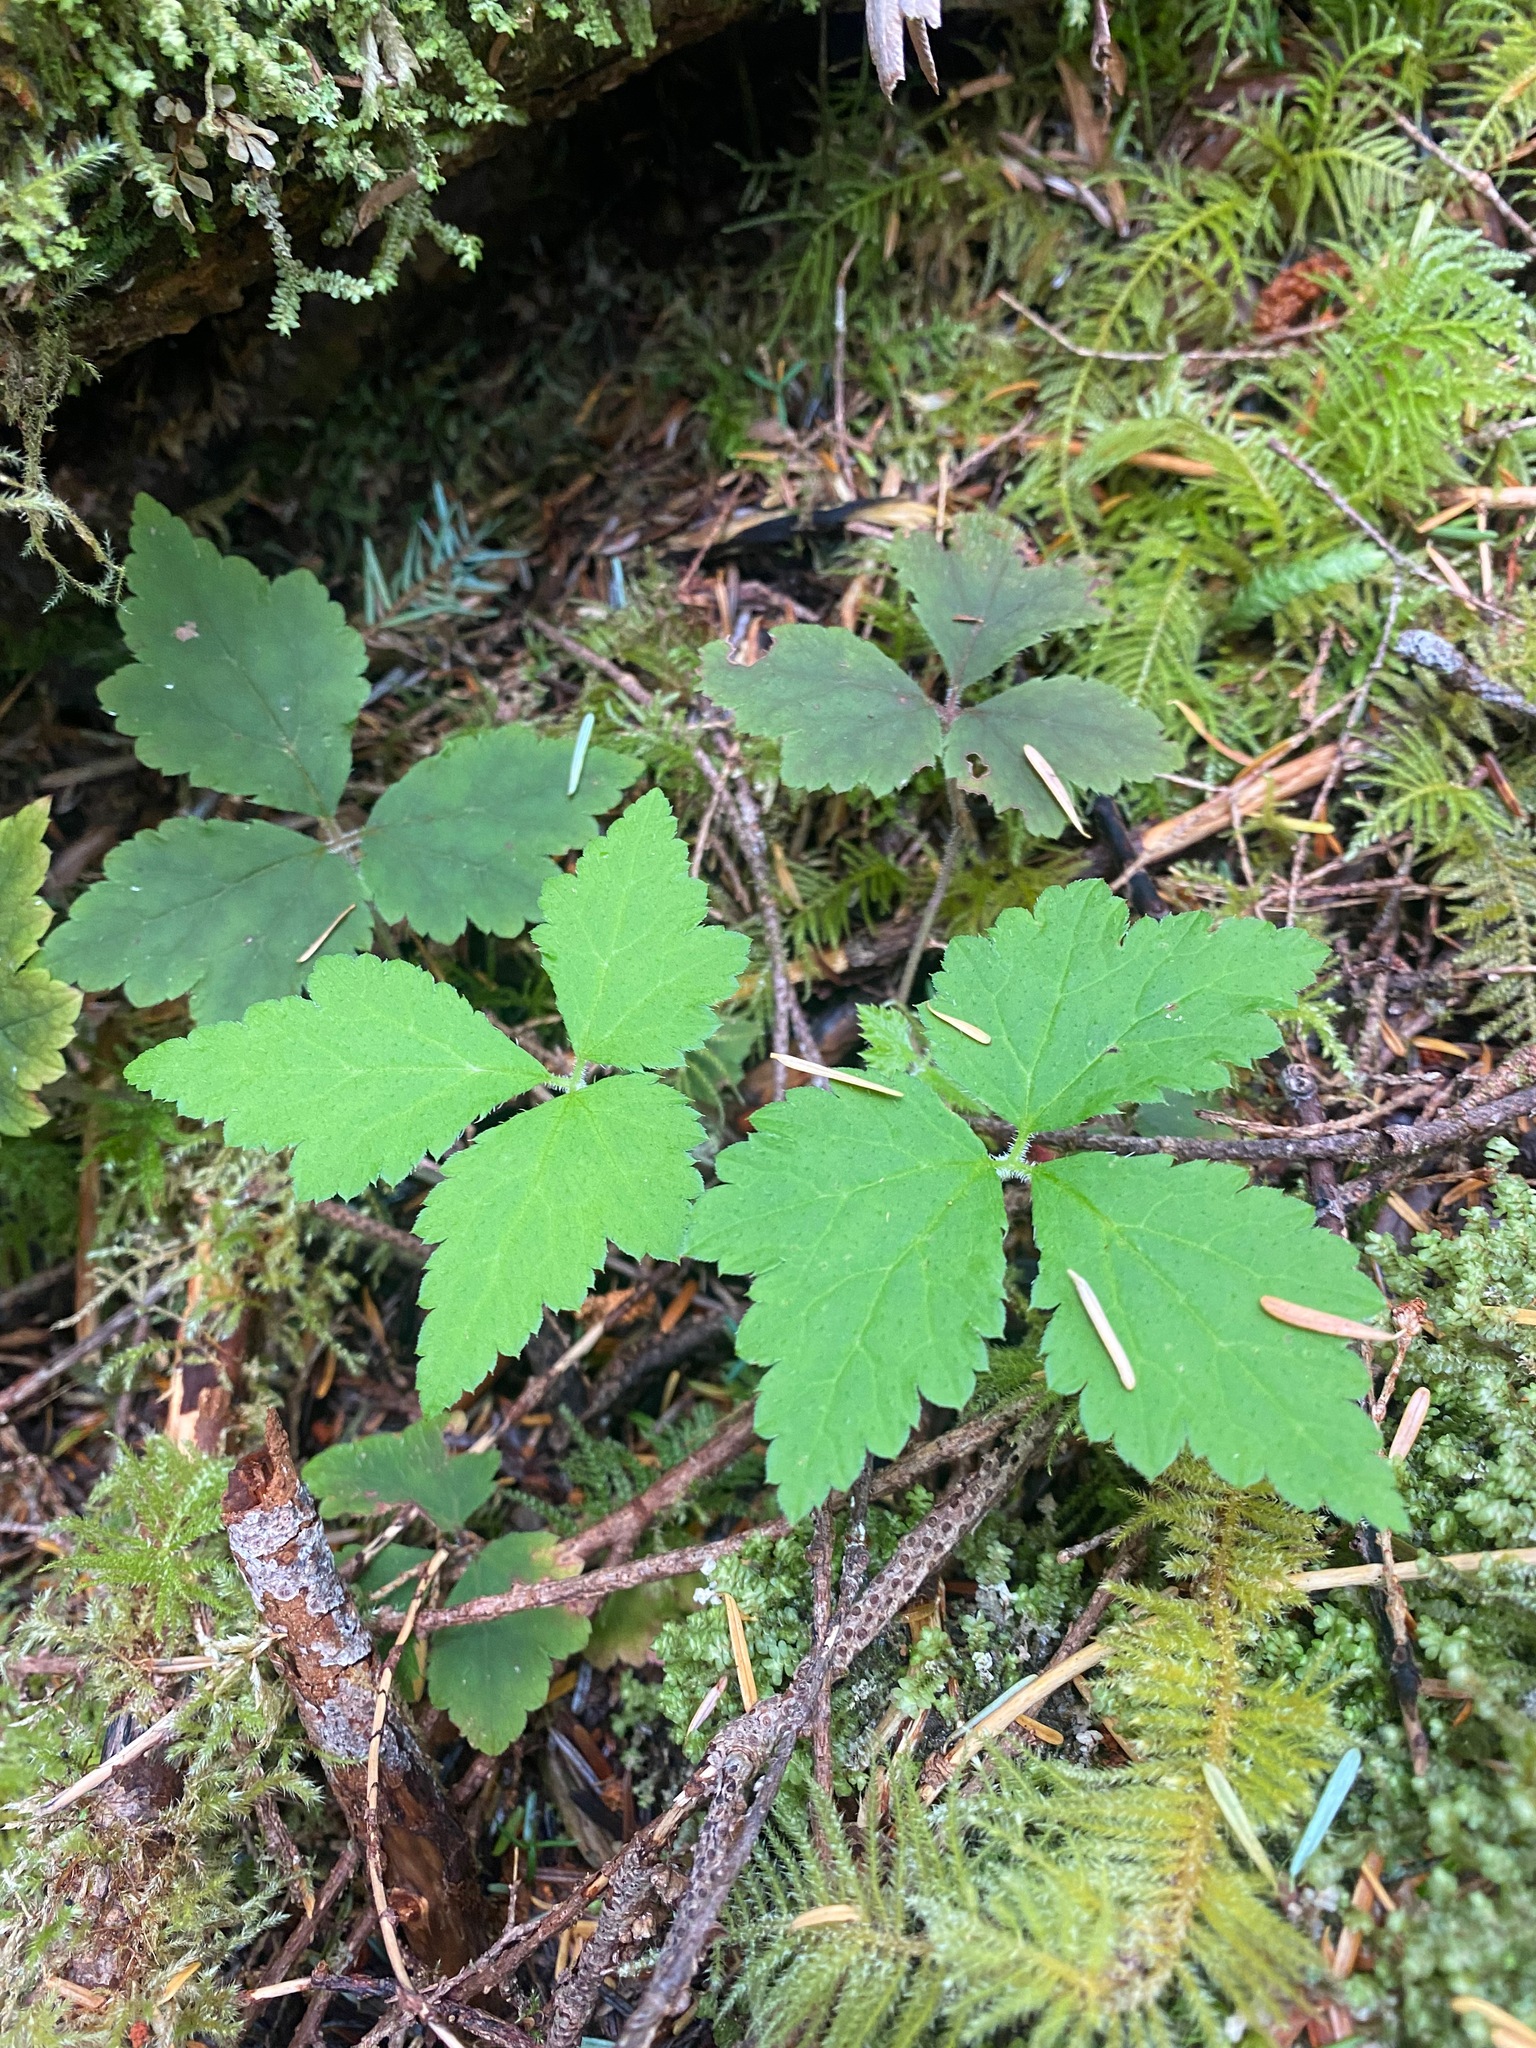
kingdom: Plantae
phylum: Tracheophyta
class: Magnoliopsida
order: Saxifragales
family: Saxifragaceae
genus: Tiarella
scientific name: Tiarella trifoliata
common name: Sugar-scoop
